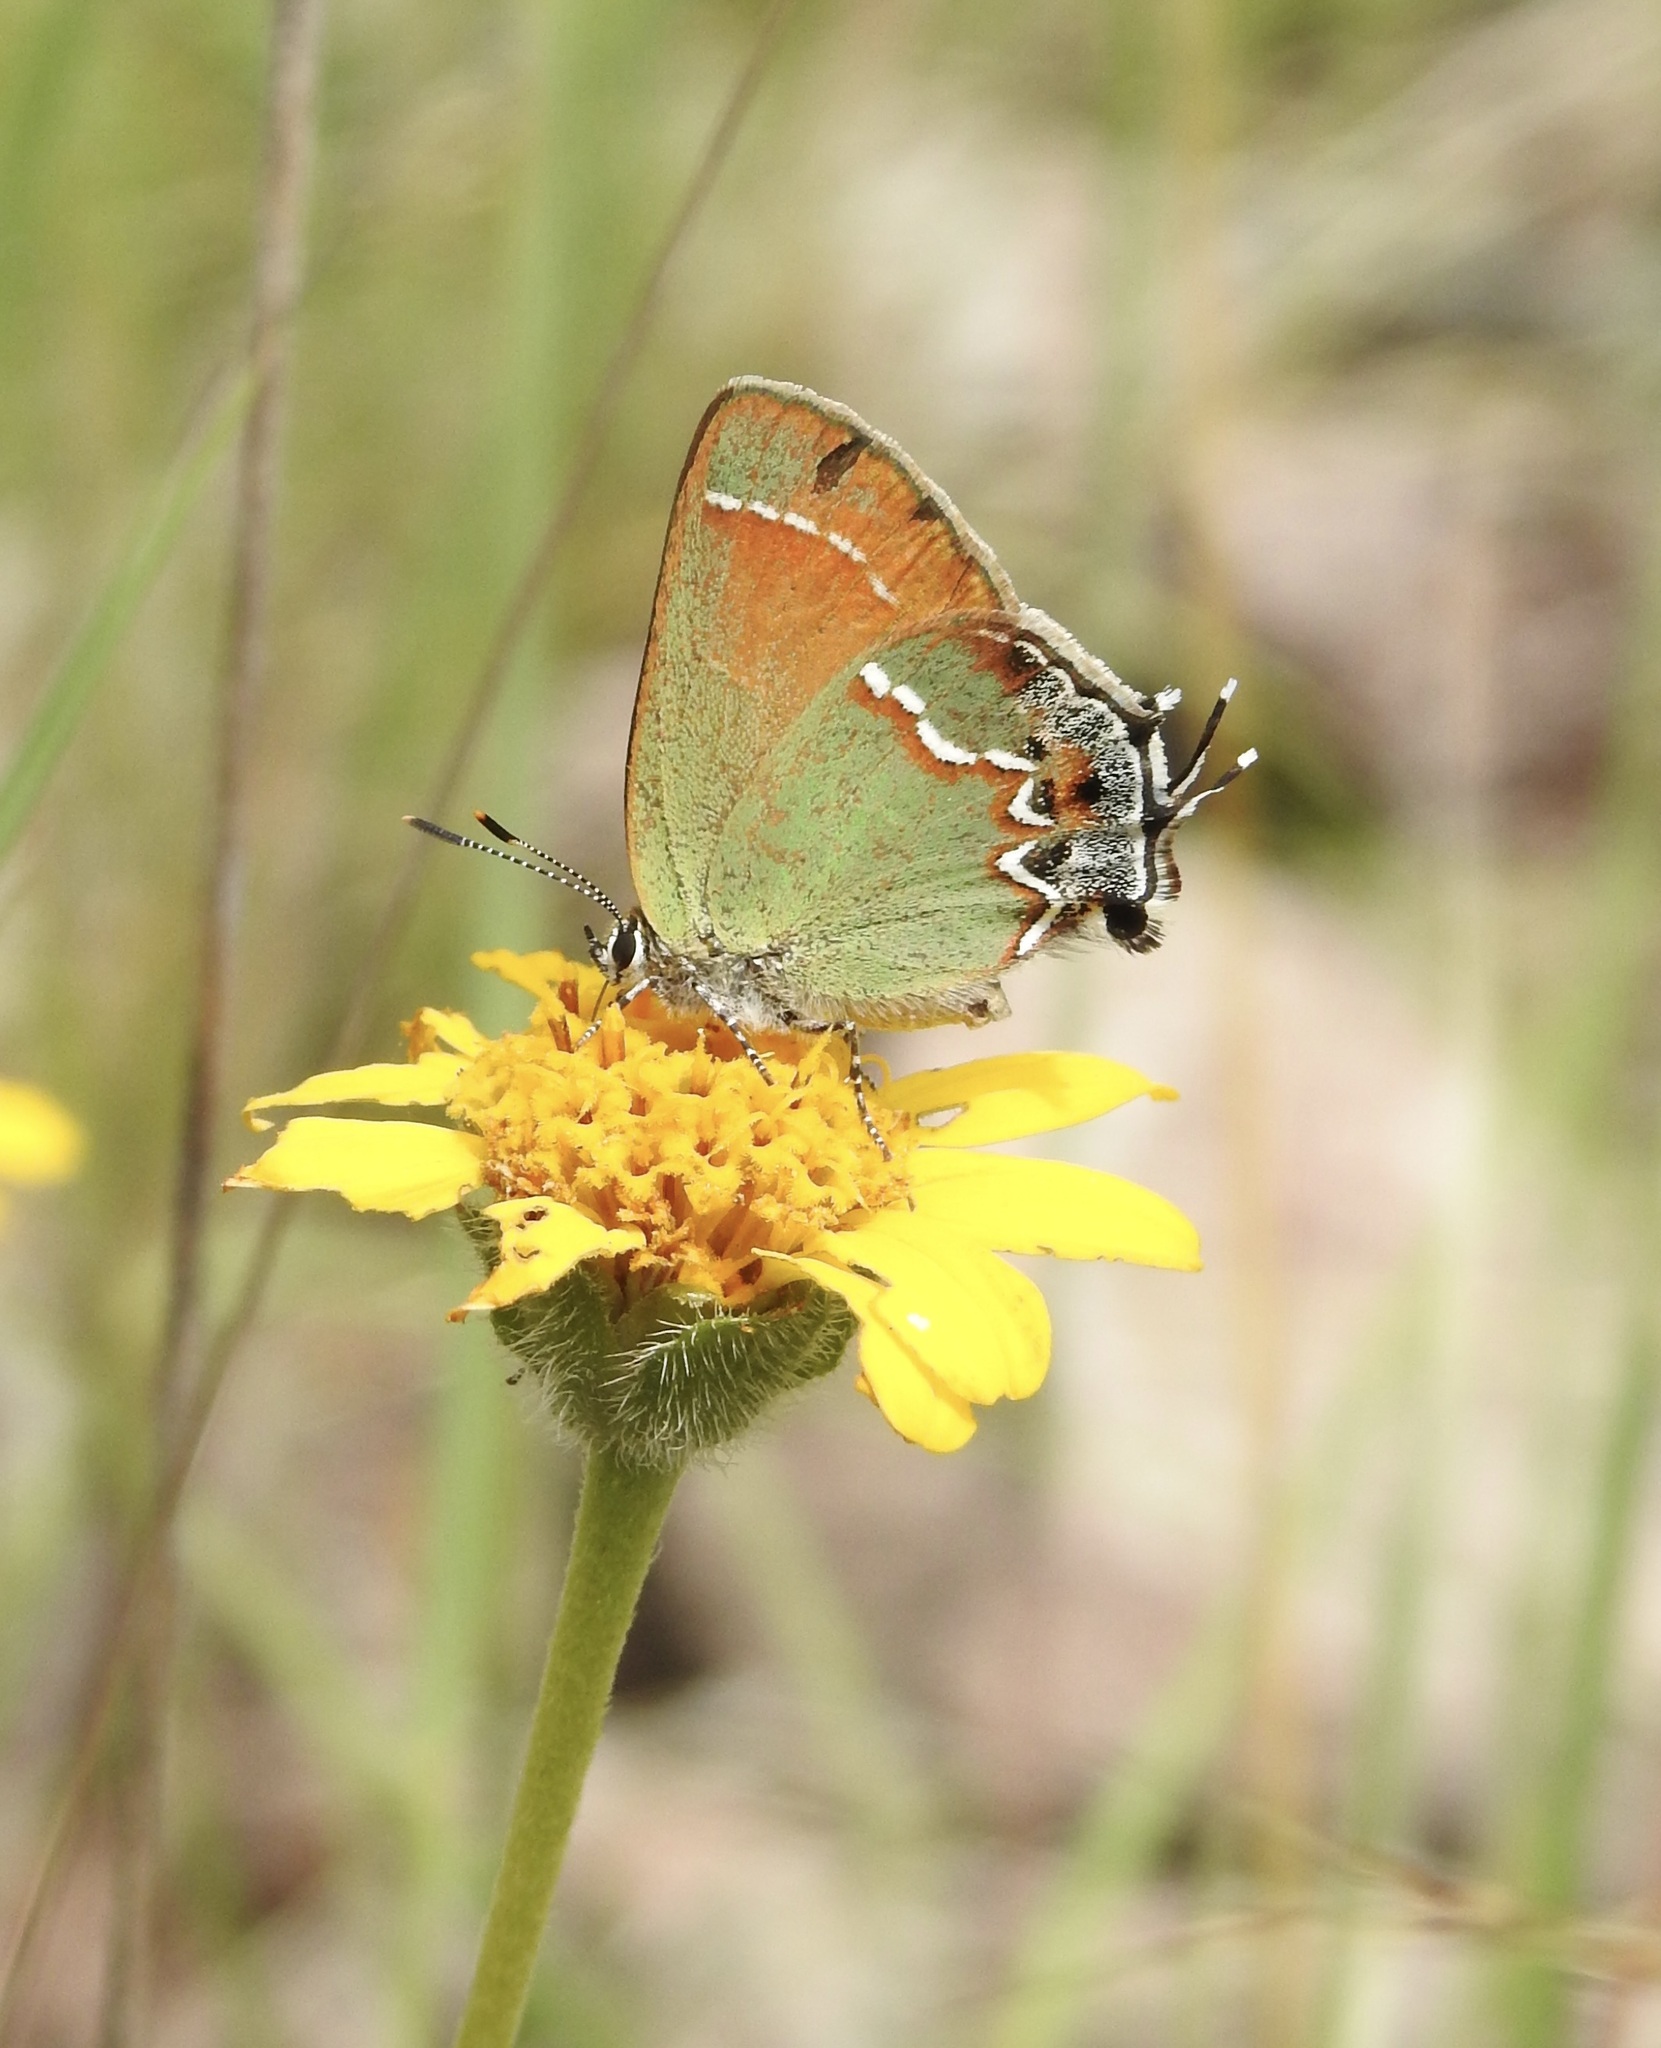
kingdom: Animalia
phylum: Arthropoda
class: Insecta
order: Lepidoptera
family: Lycaenidae
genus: Mitoura
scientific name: Mitoura gryneus
